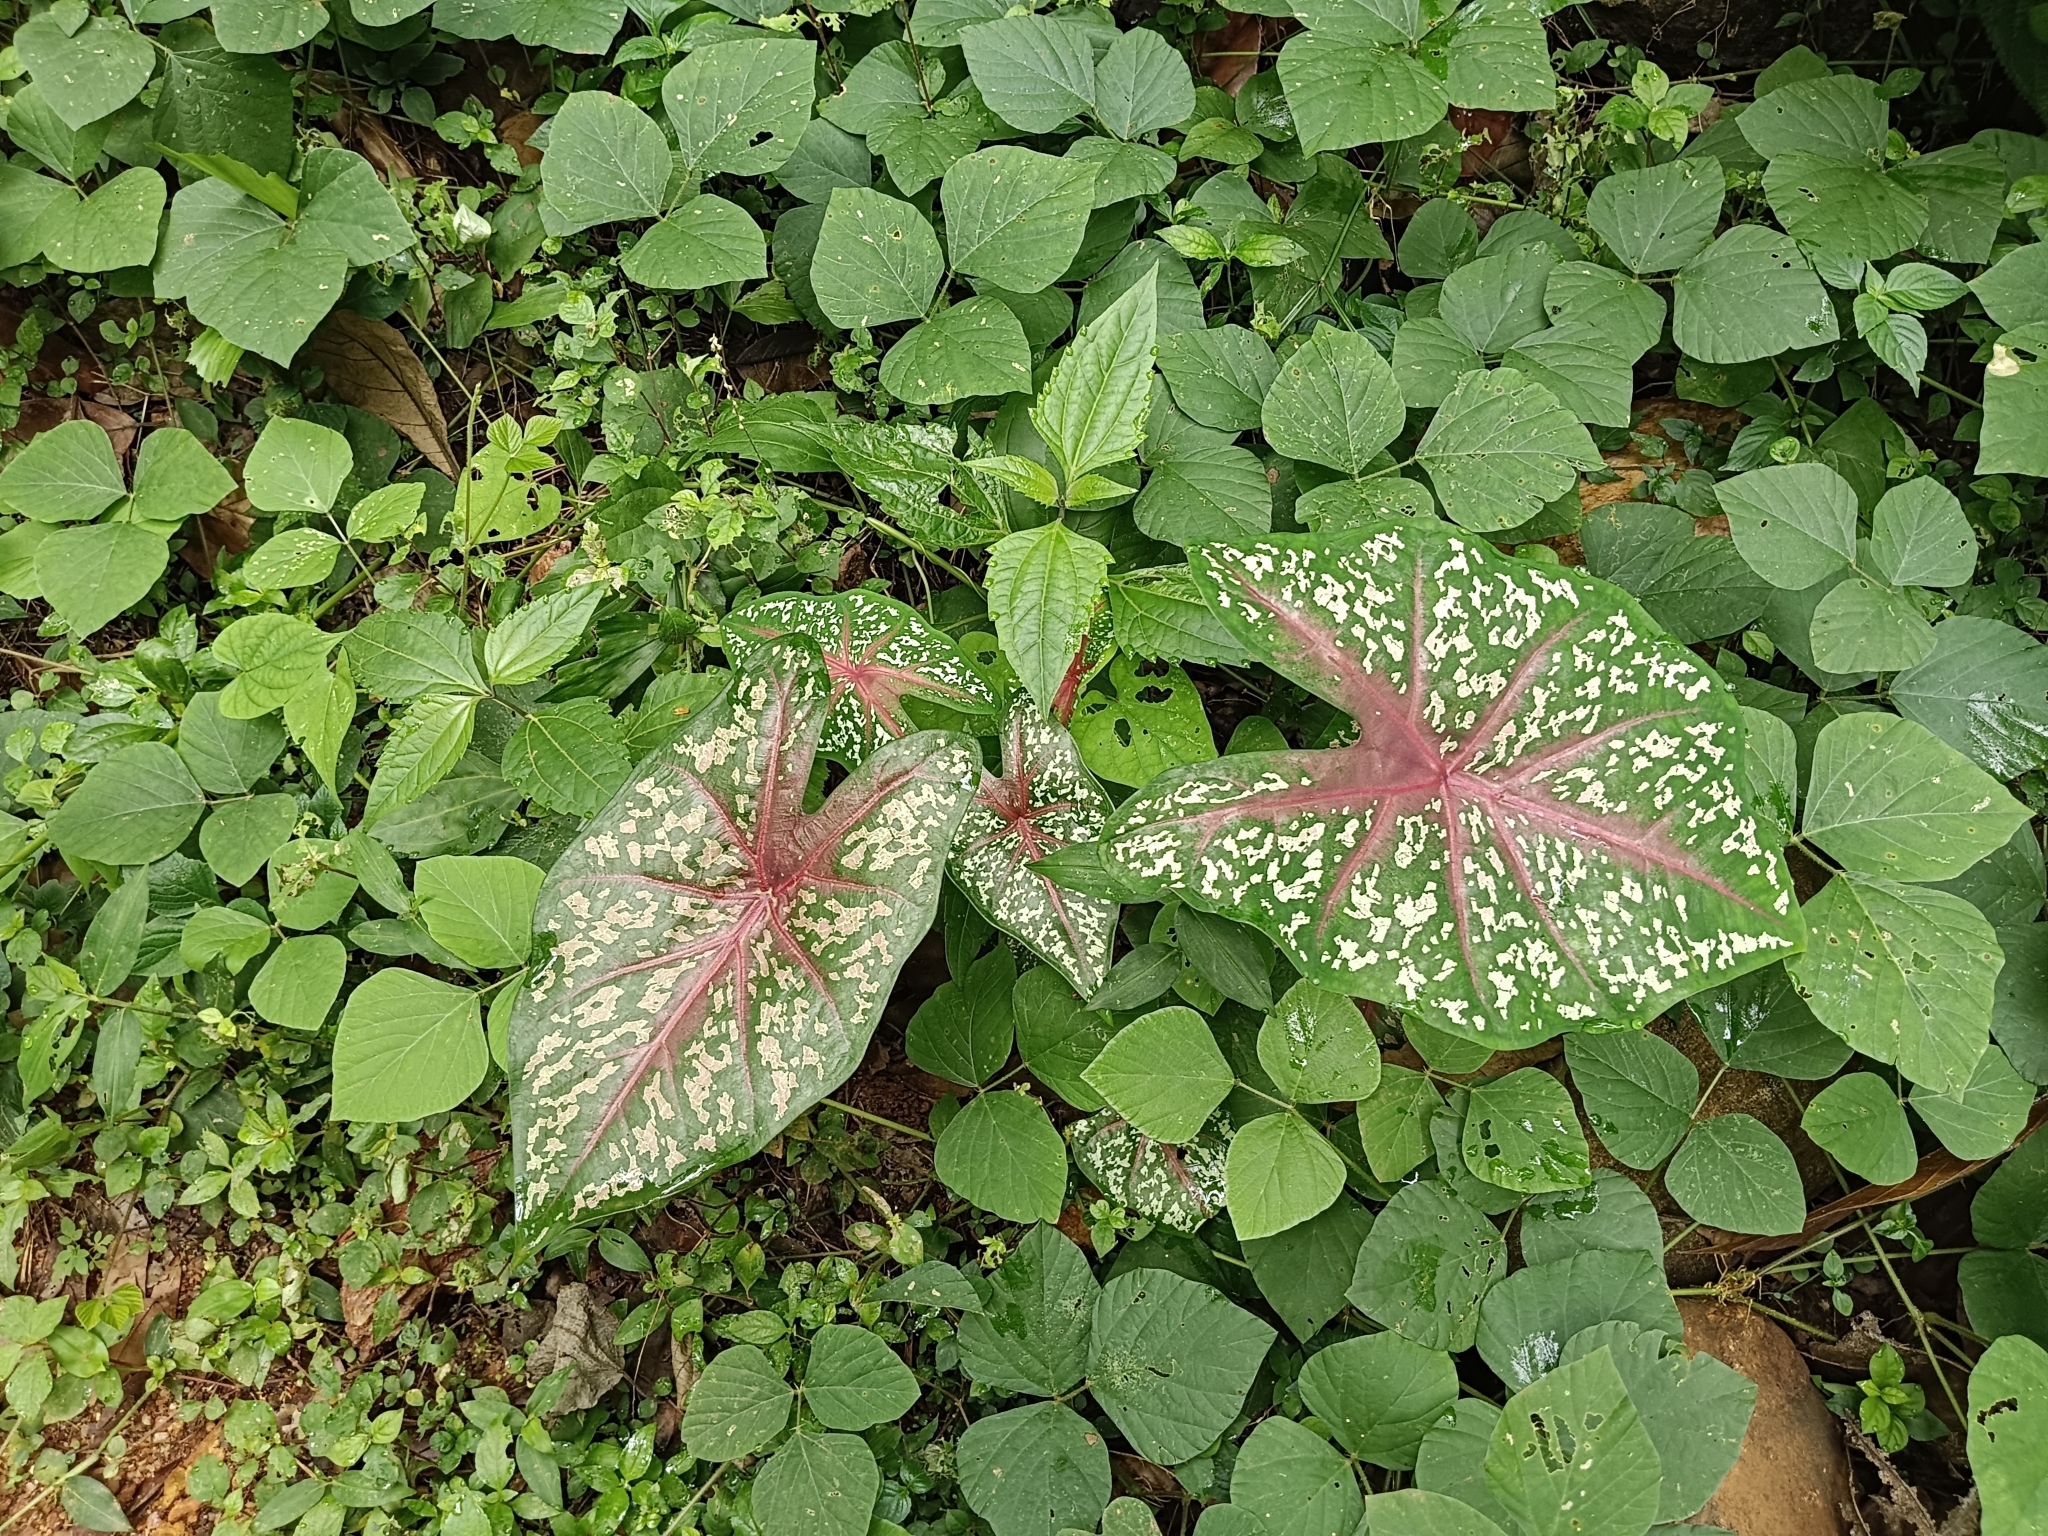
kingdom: Plantae
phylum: Tracheophyta
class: Liliopsida
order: Alismatales
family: Araceae
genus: Caladium
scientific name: Caladium bicolor
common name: Artist's pallet
